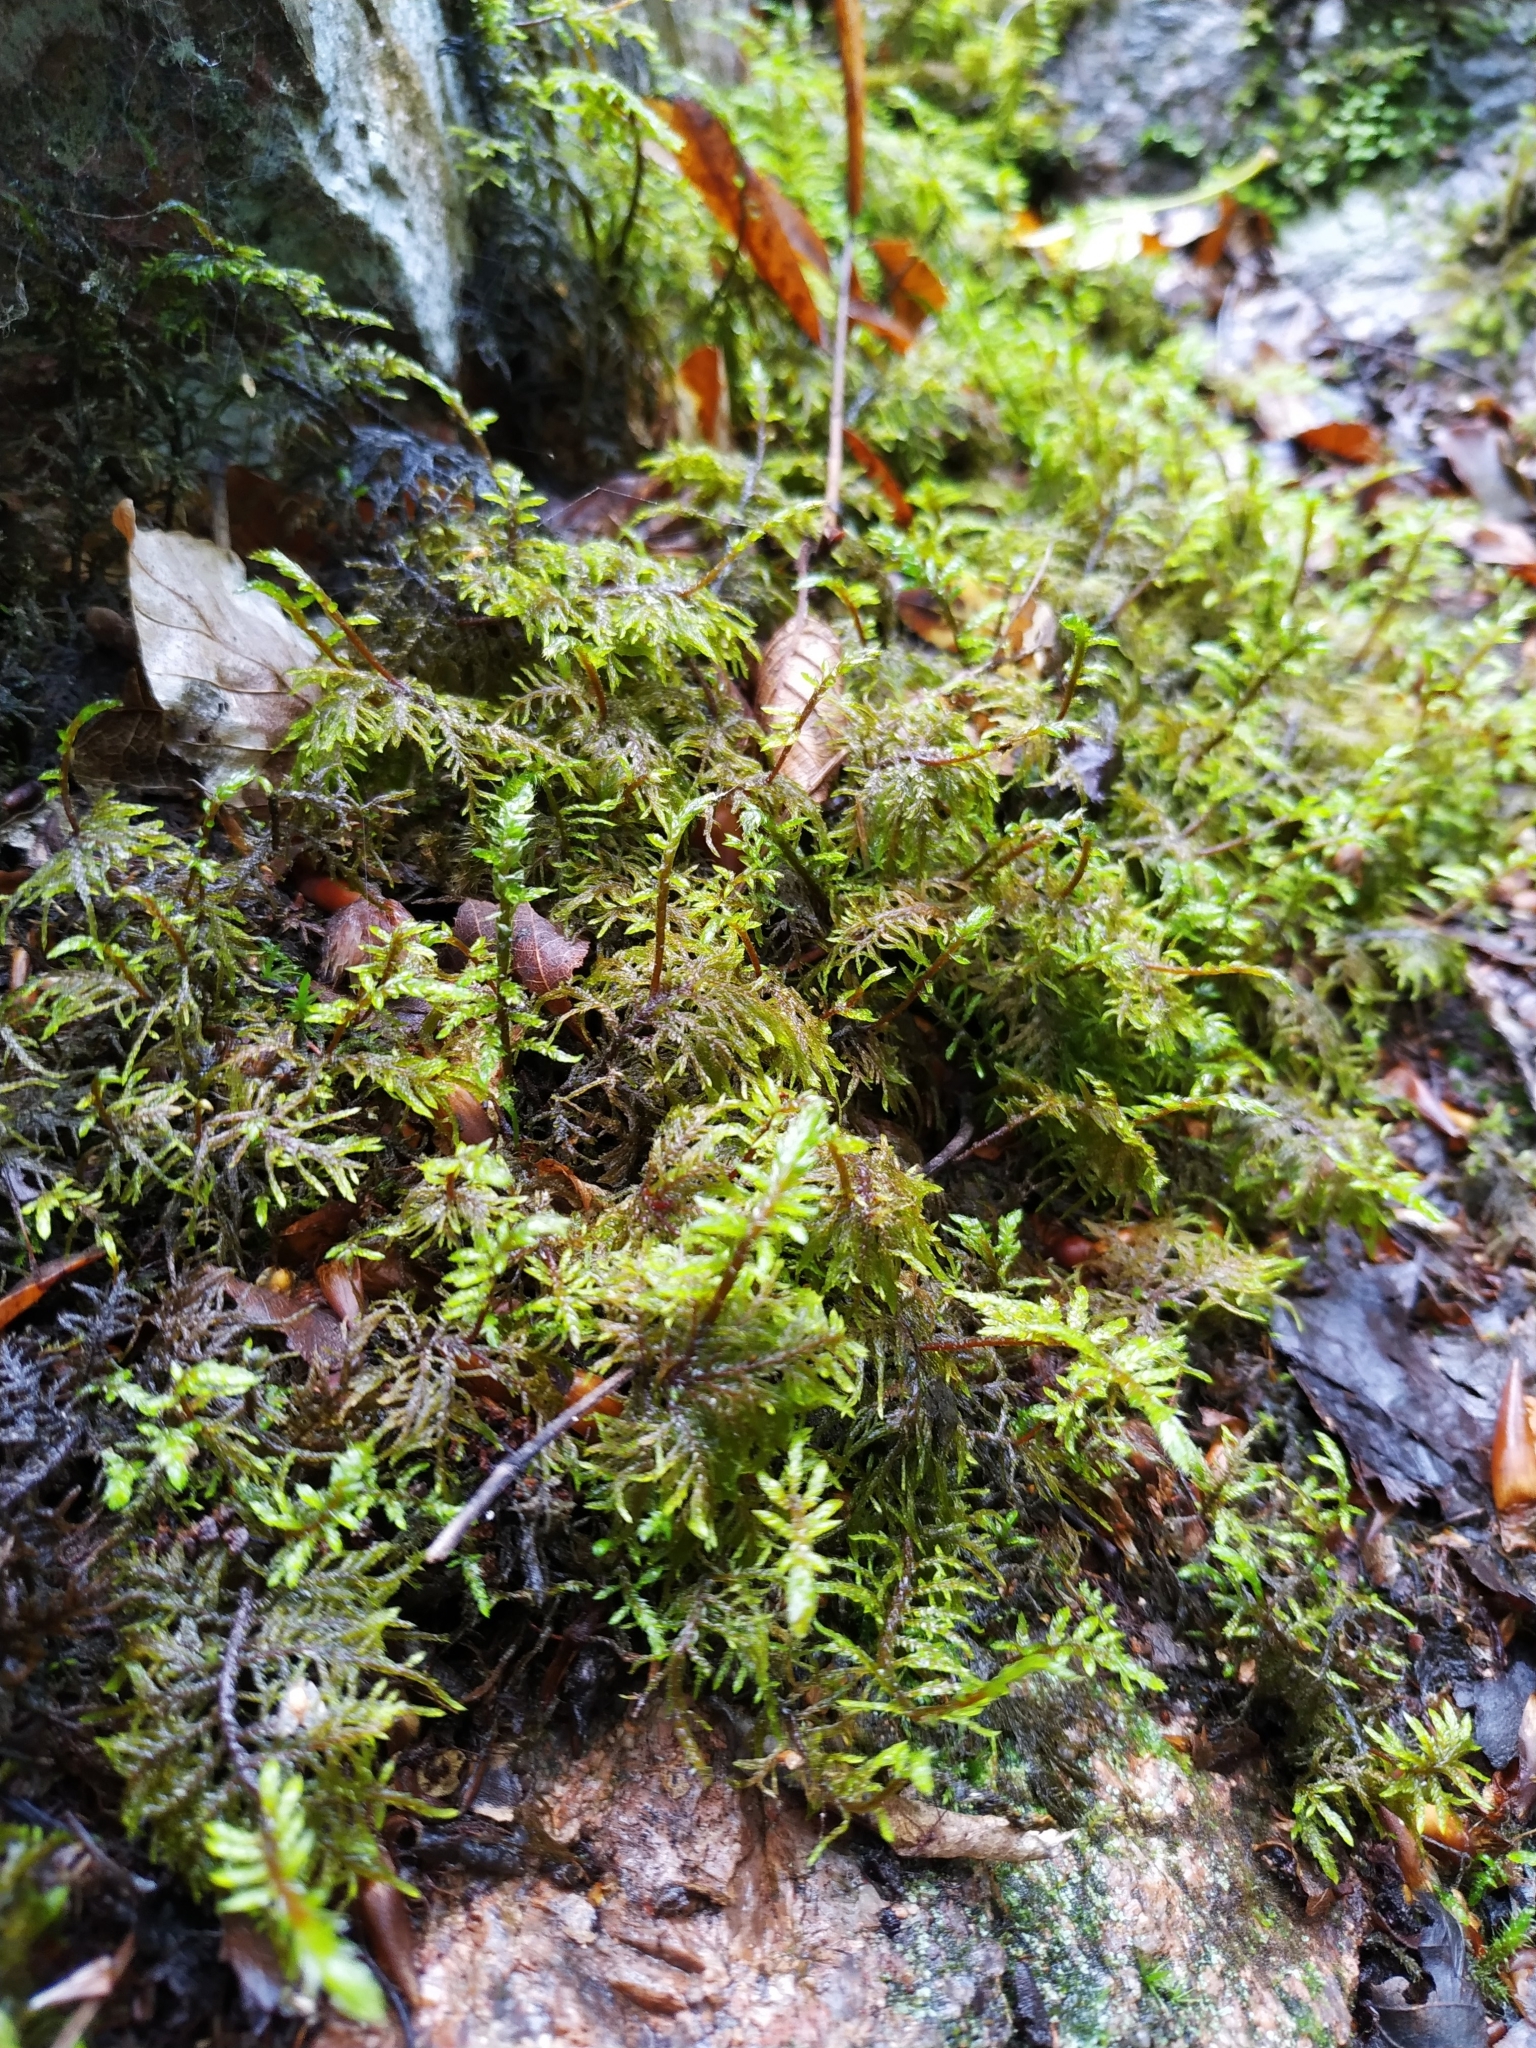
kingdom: Plantae
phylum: Bryophyta
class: Bryopsida
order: Hypnales
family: Hylocomiaceae
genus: Hylocomium
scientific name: Hylocomium splendens
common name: Stairstep moss
